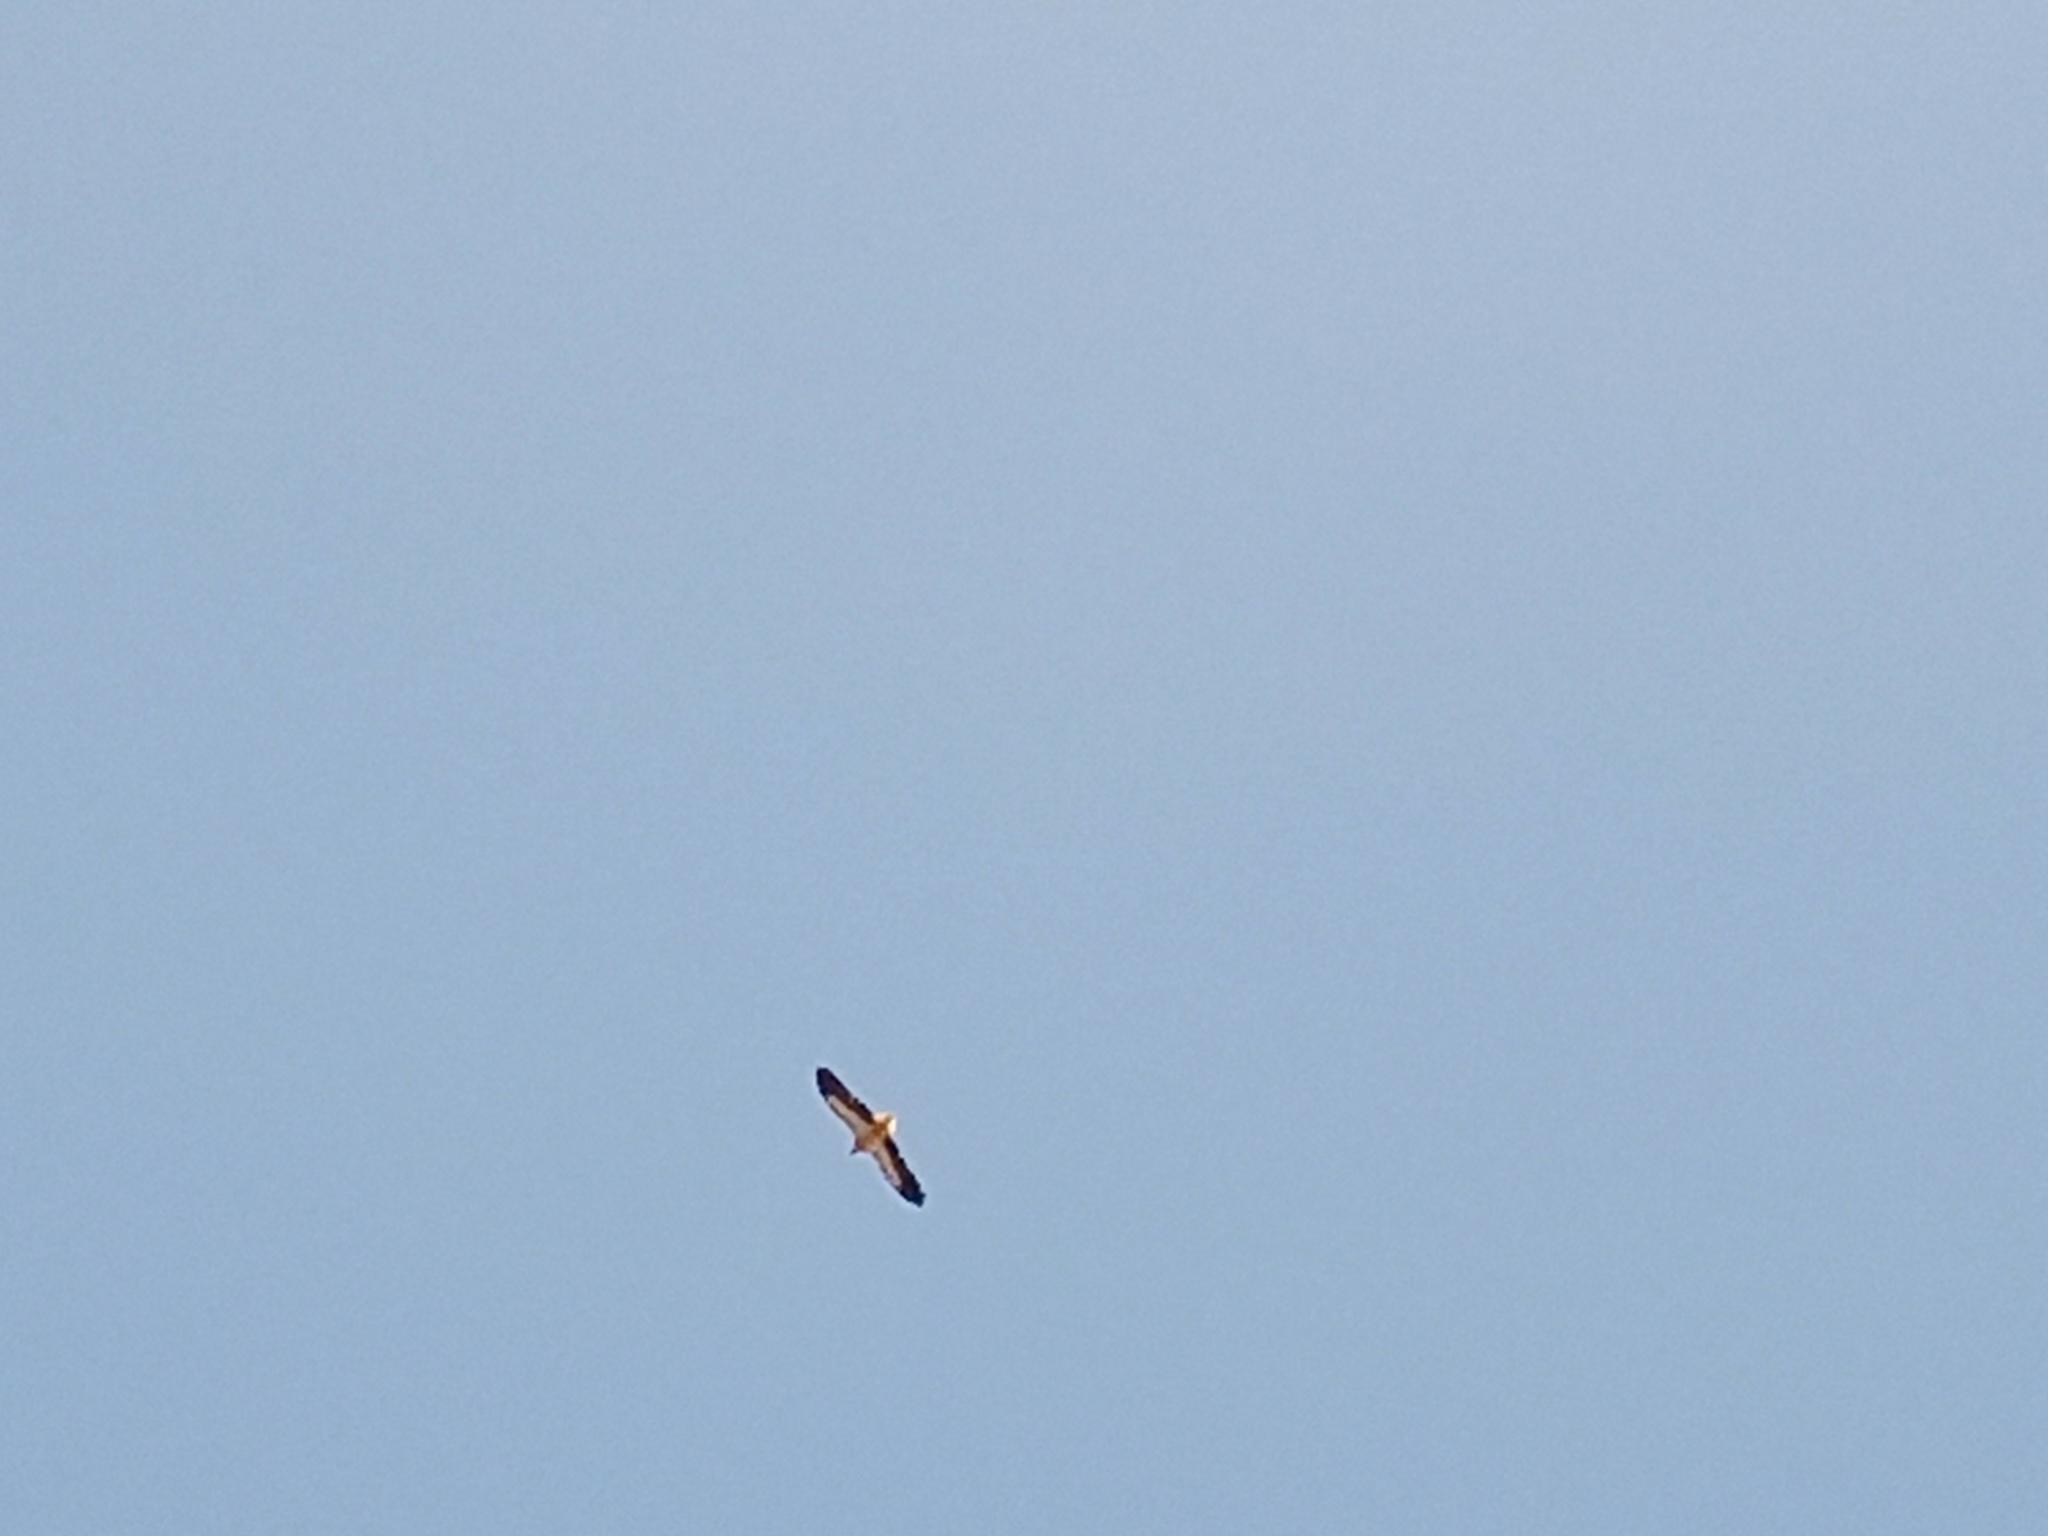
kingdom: Animalia
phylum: Chordata
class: Aves
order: Accipitriformes
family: Accipitridae
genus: Neophron
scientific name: Neophron percnopterus
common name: Egyptian vulture
